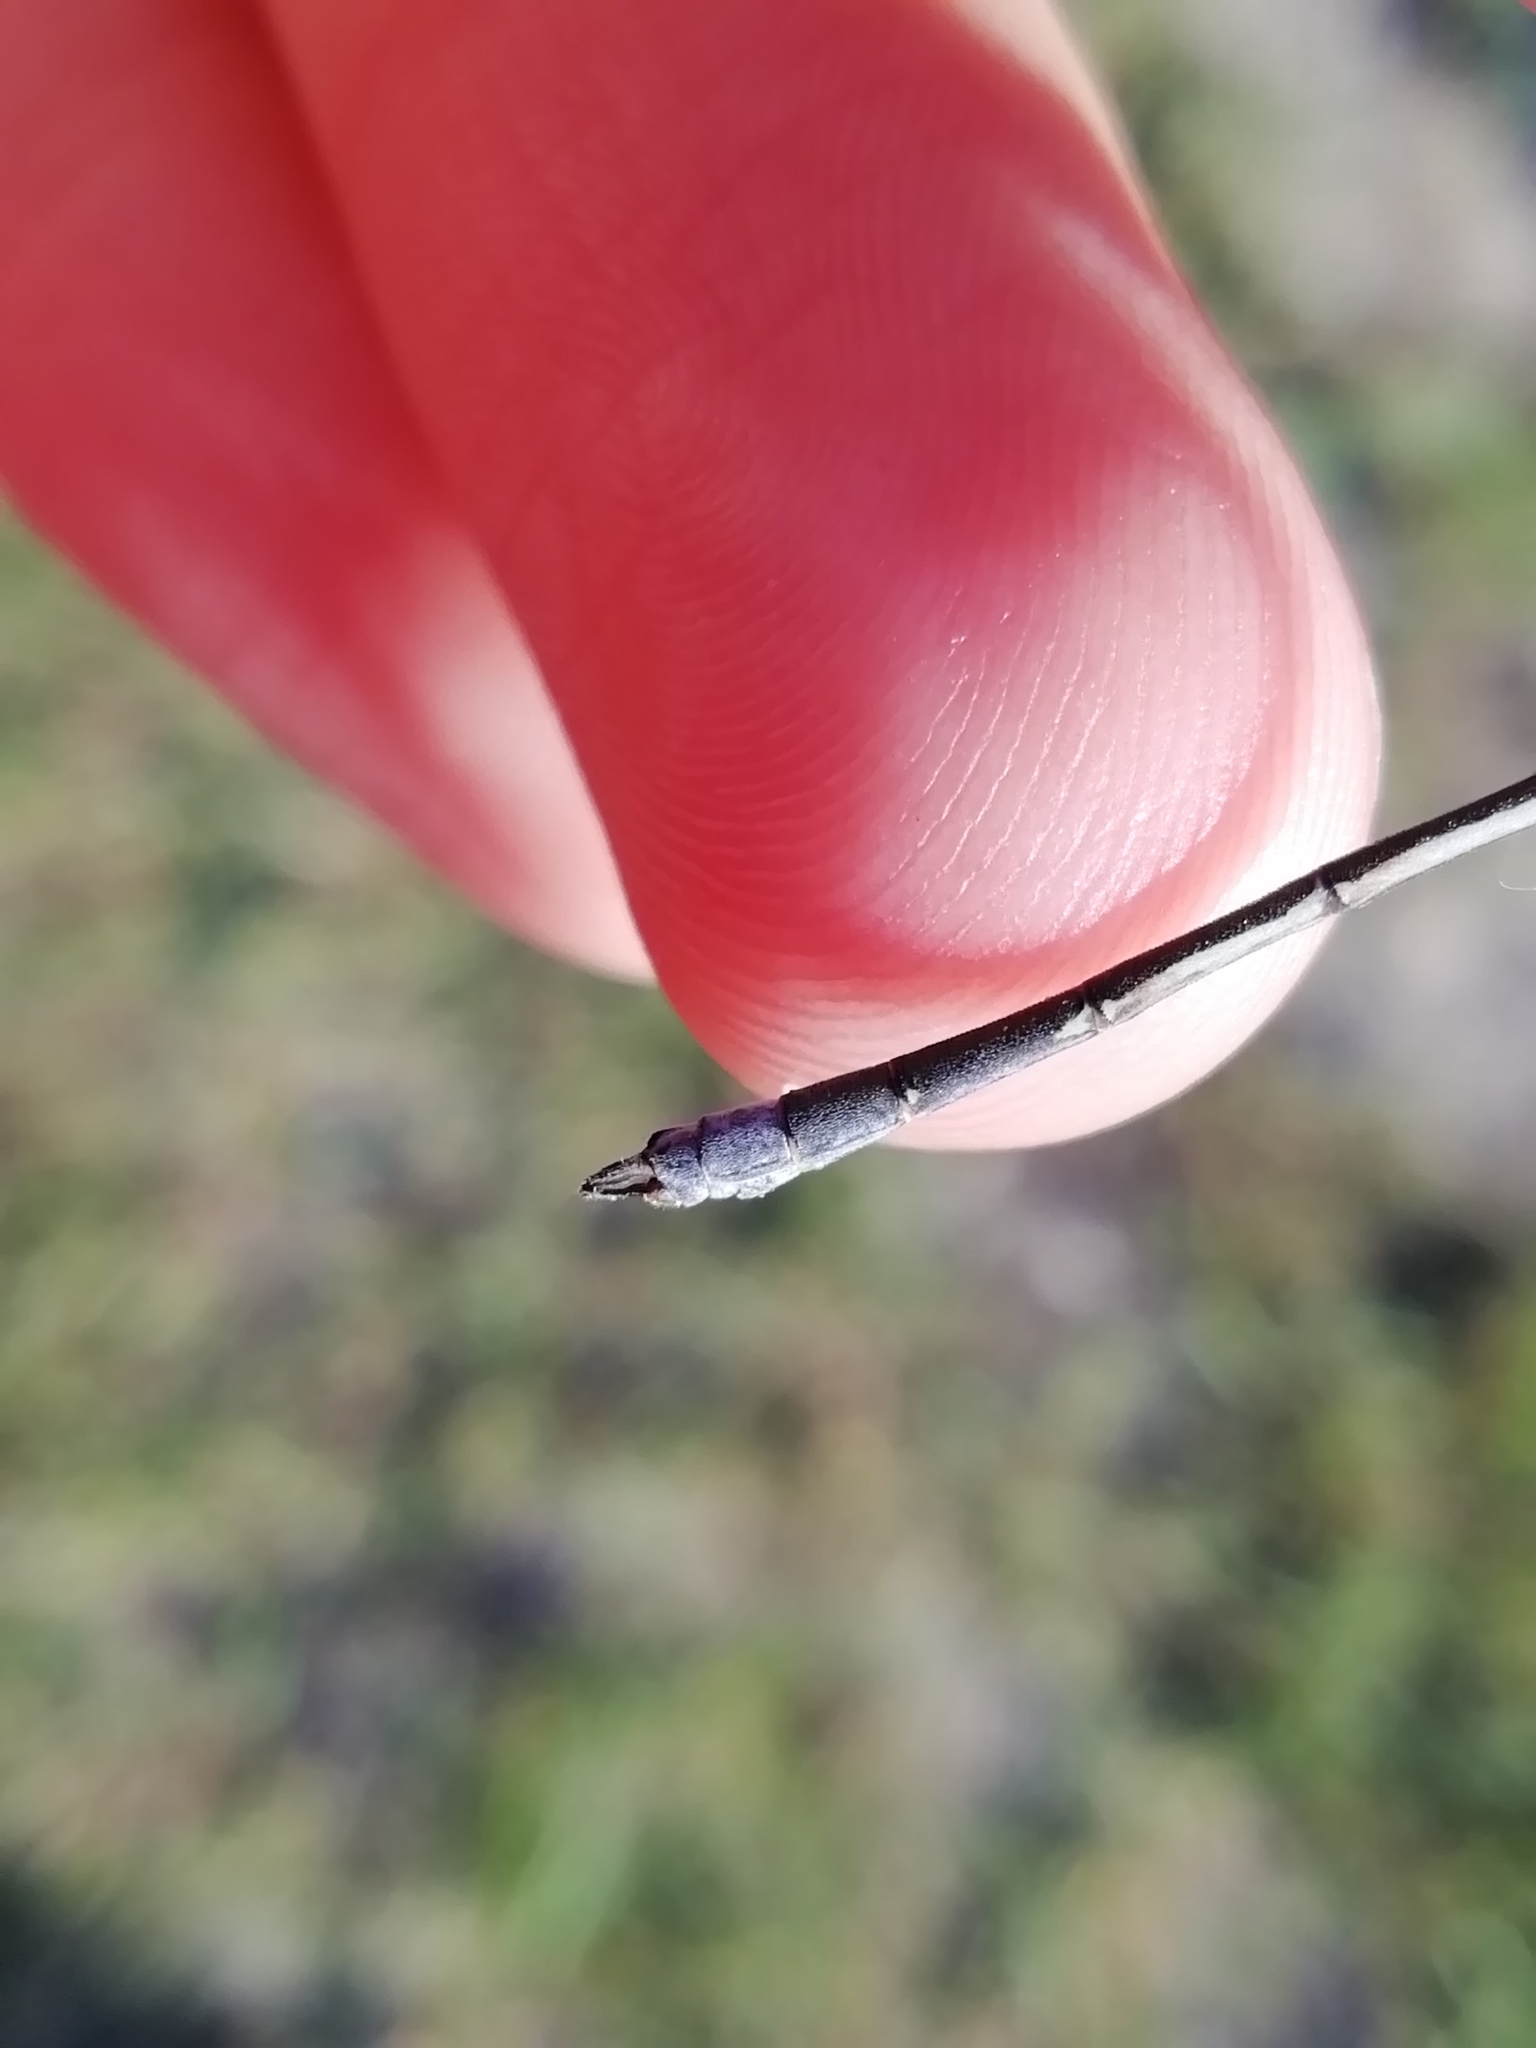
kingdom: Animalia
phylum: Arthropoda
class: Insecta
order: Odonata
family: Lestidae
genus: Lestes
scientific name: Lestes sponsa
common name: Common spreadwing
